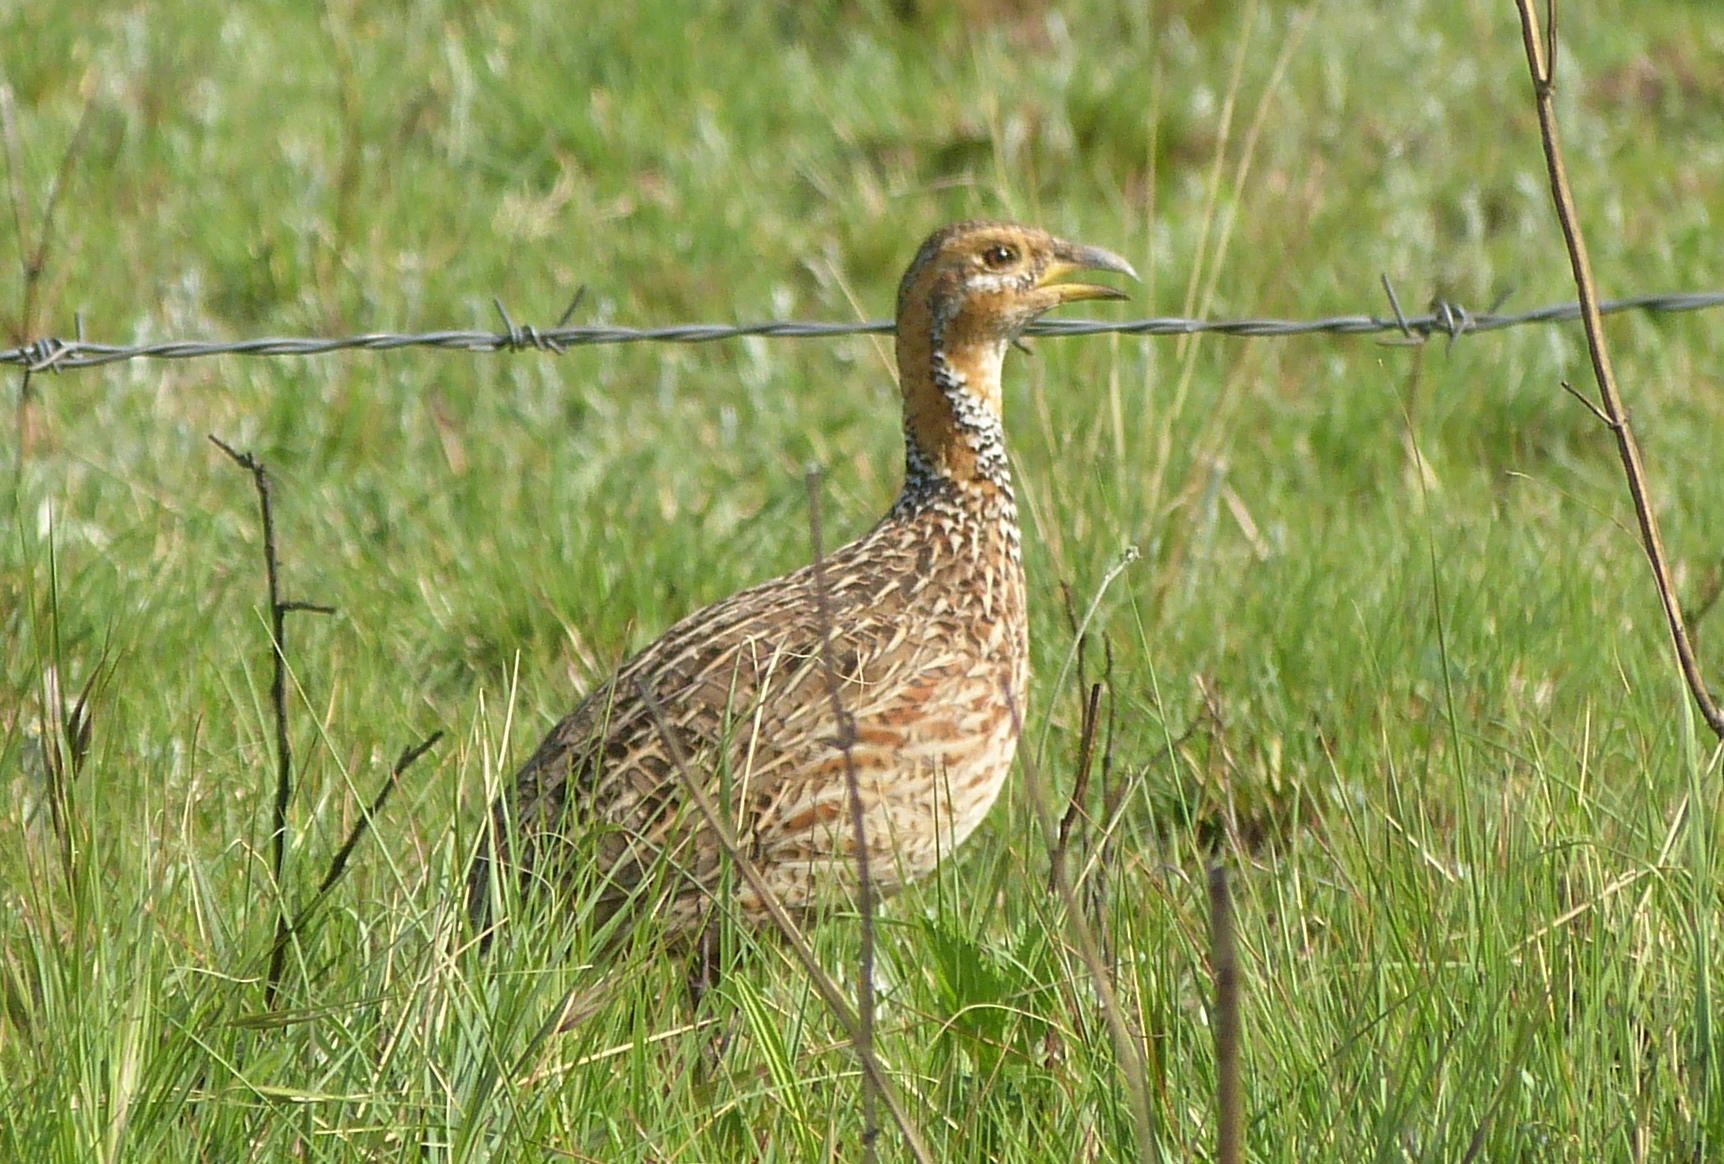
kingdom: Animalia
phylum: Chordata
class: Aves
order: Galliformes
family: Phasianidae
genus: Scleroptila
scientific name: Scleroptila levaillantii
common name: Red-winged francolin
